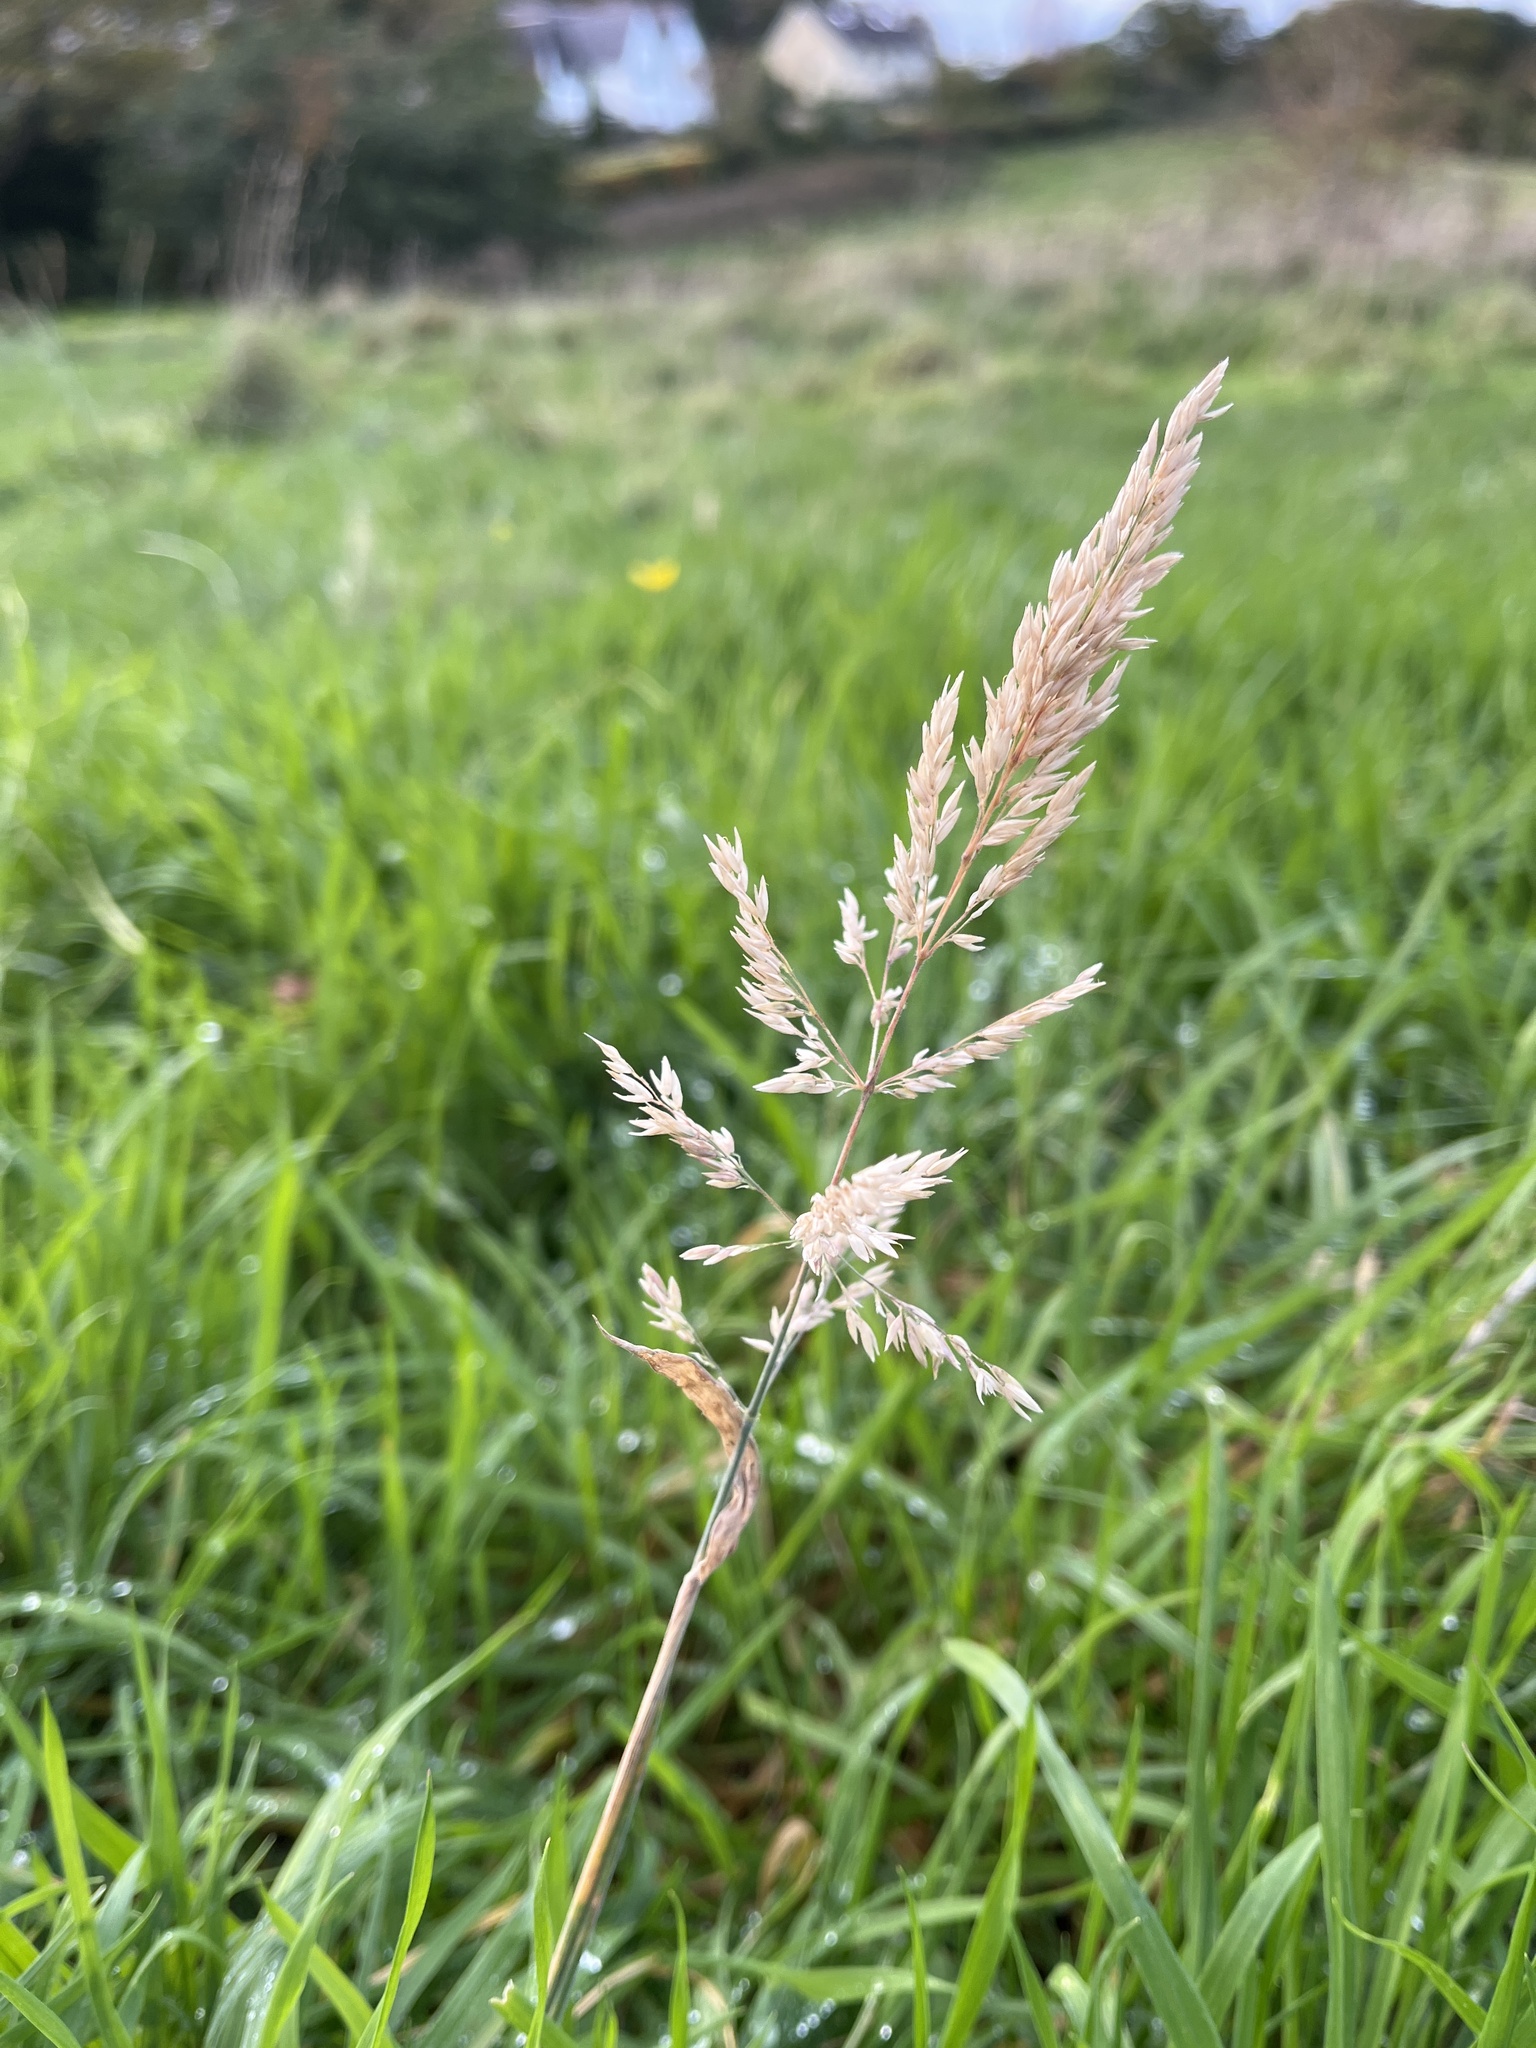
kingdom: Plantae
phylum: Tracheophyta
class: Liliopsida
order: Poales
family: Poaceae
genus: Holcus
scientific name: Holcus lanatus
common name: Yorkshire-fog
